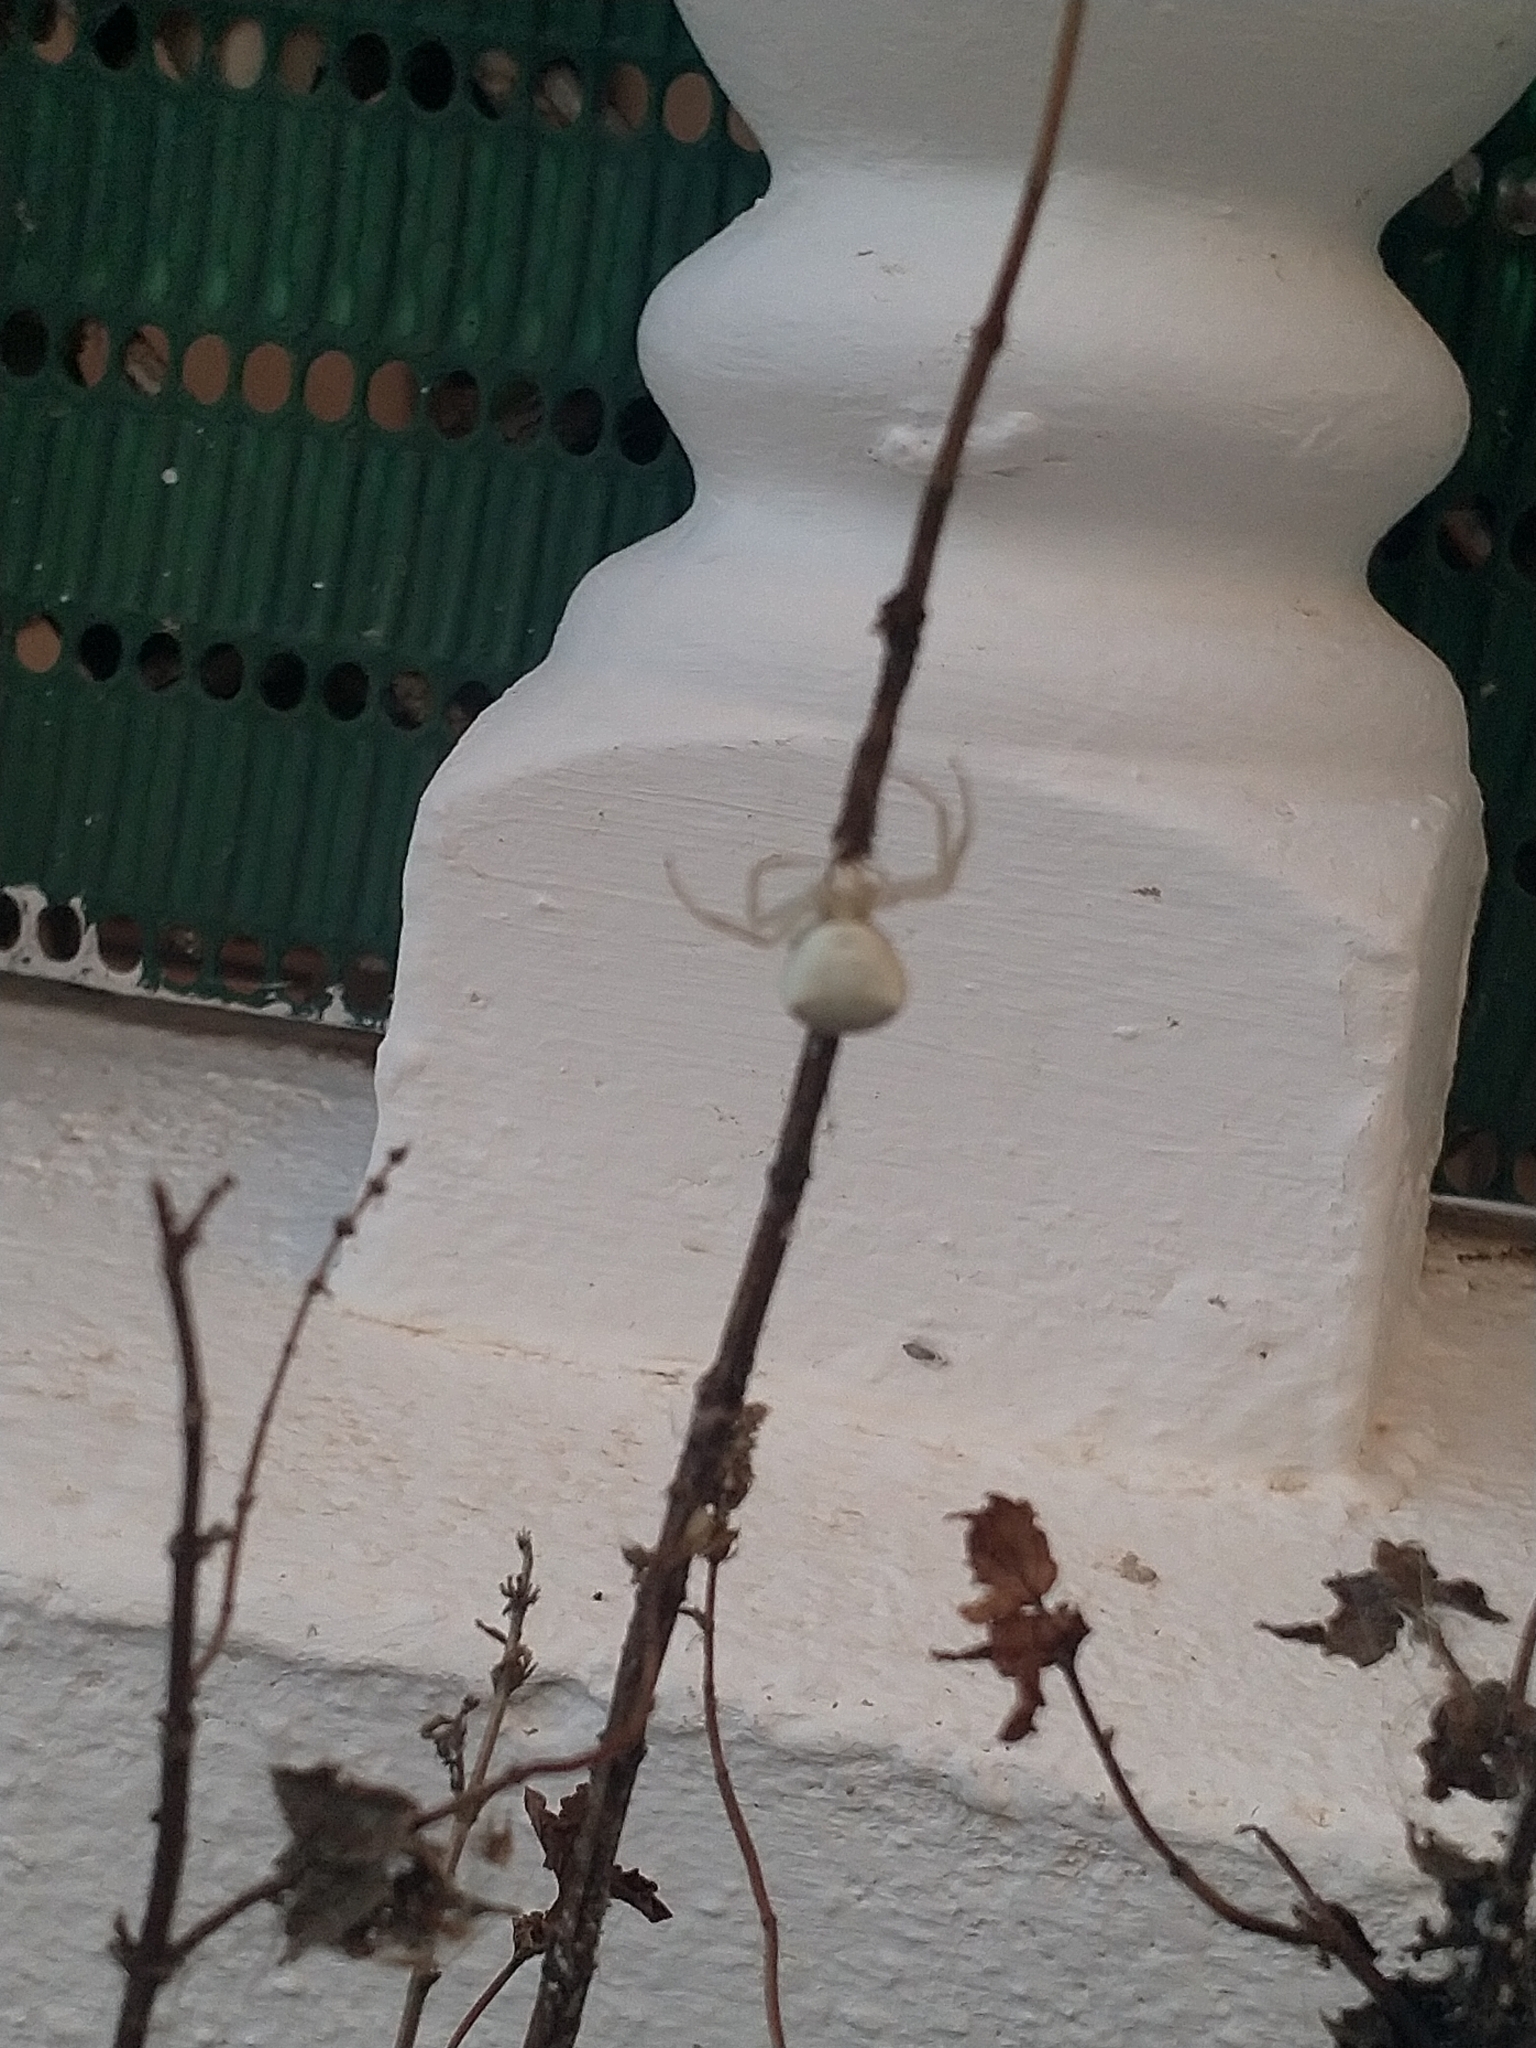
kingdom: Animalia
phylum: Arthropoda
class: Arachnida
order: Araneae
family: Thomisidae
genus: Thomisus
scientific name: Thomisus onustus
